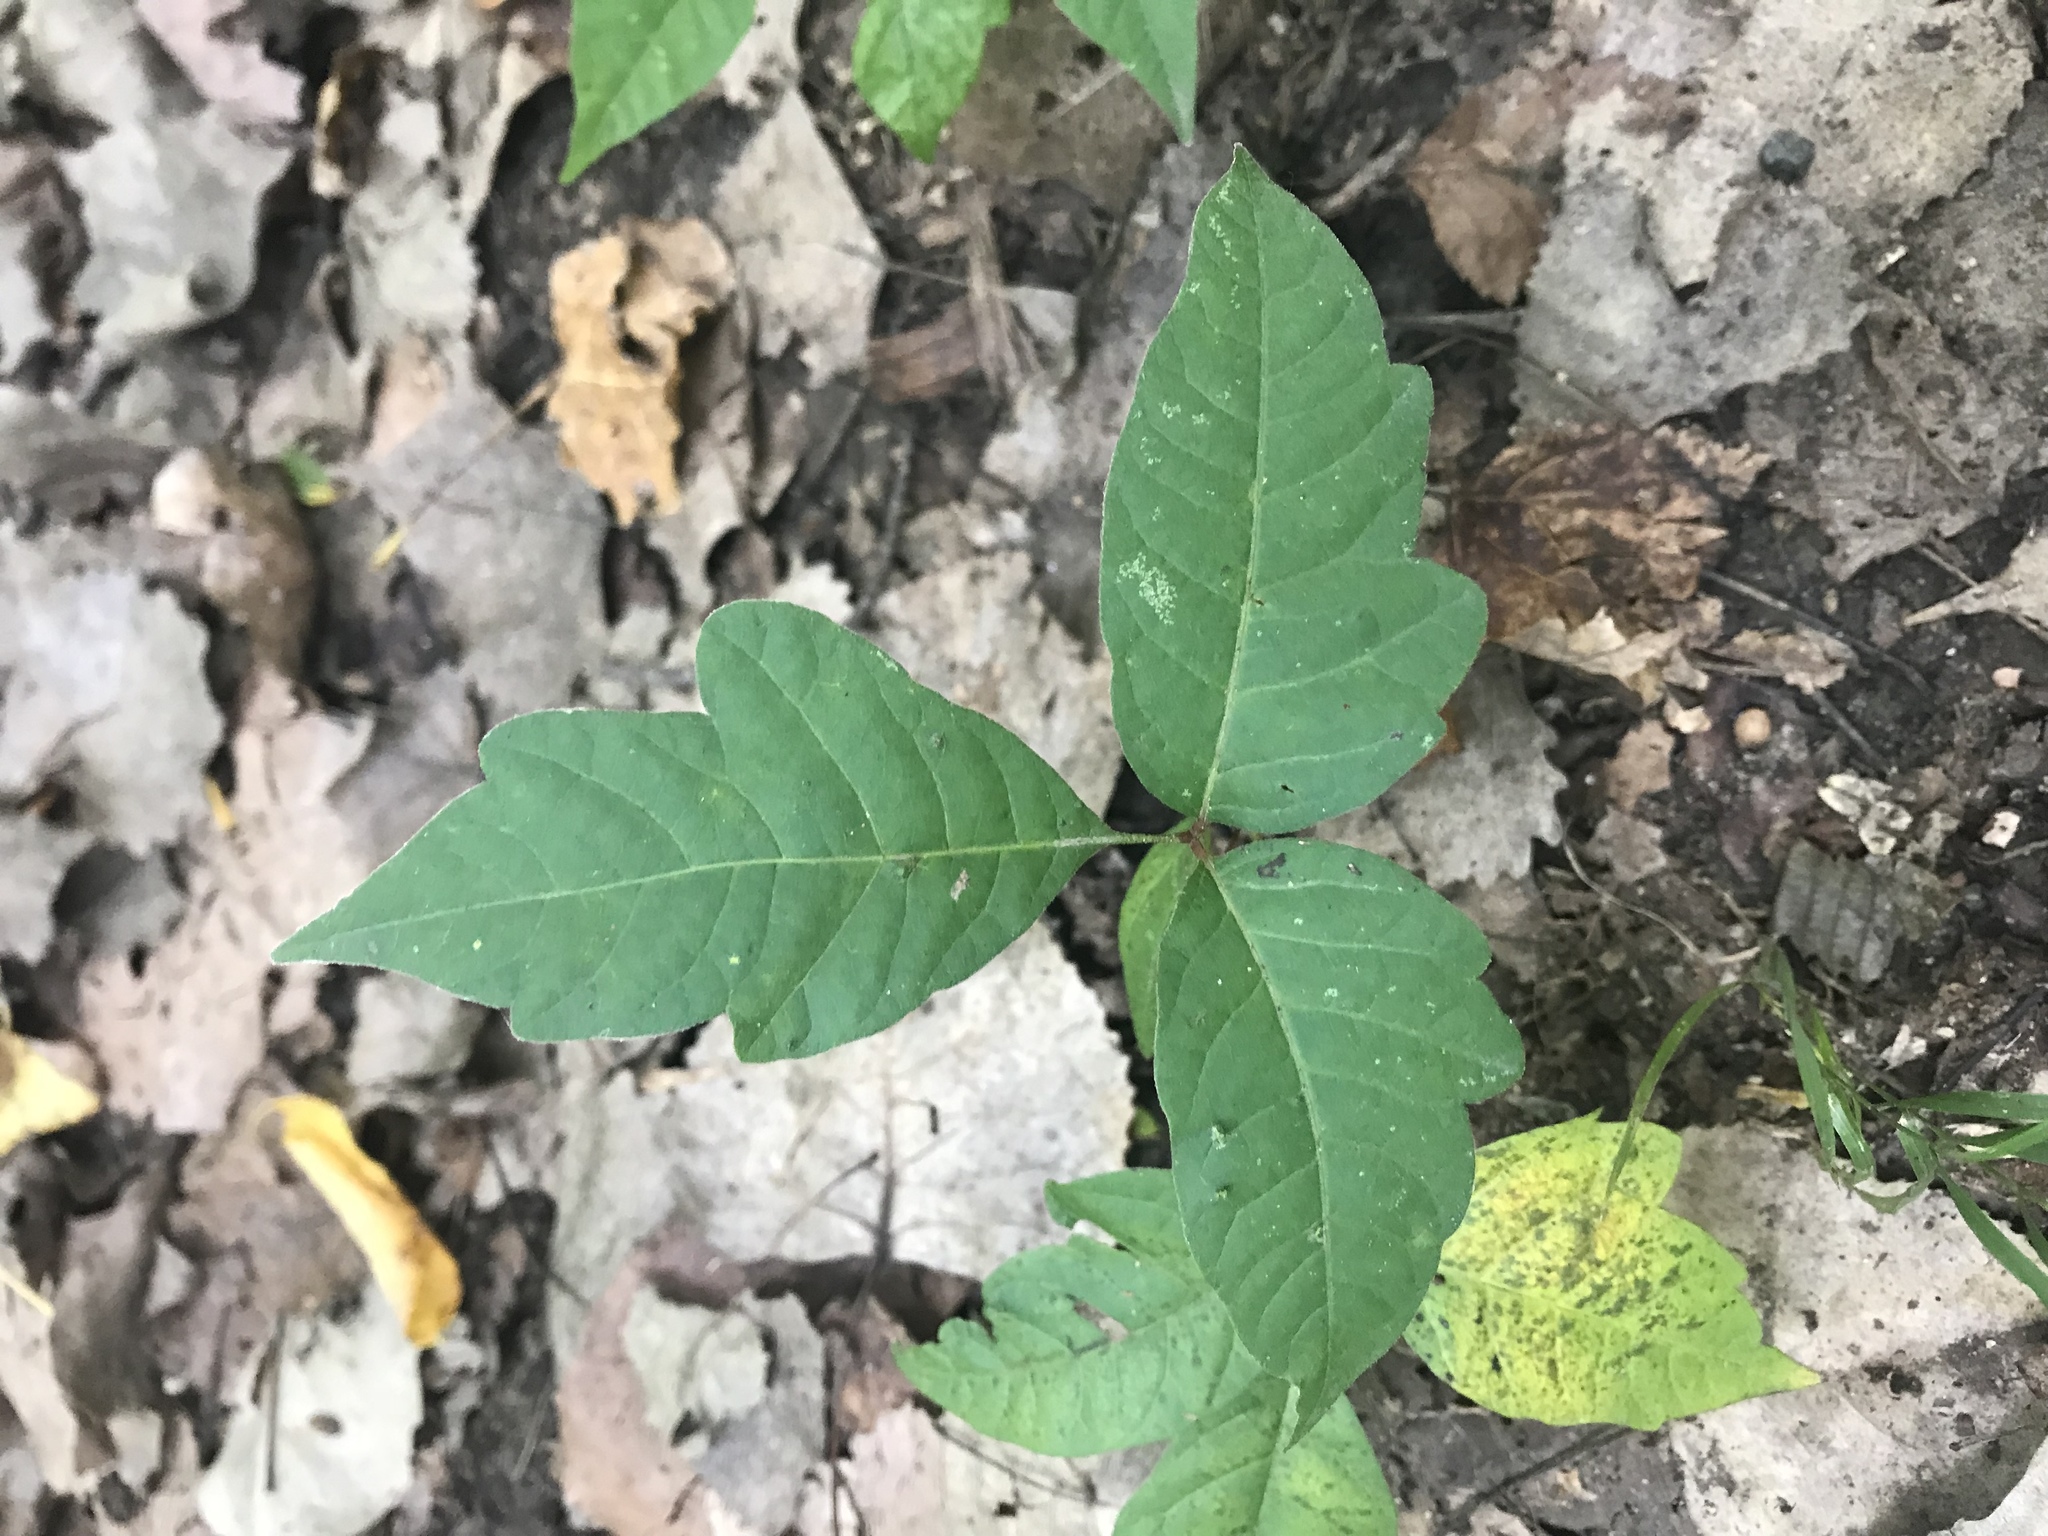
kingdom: Plantae
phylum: Tracheophyta
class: Magnoliopsida
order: Sapindales
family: Anacardiaceae
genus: Toxicodendron
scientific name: Toxicodendron radicans
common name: Poison ivy
